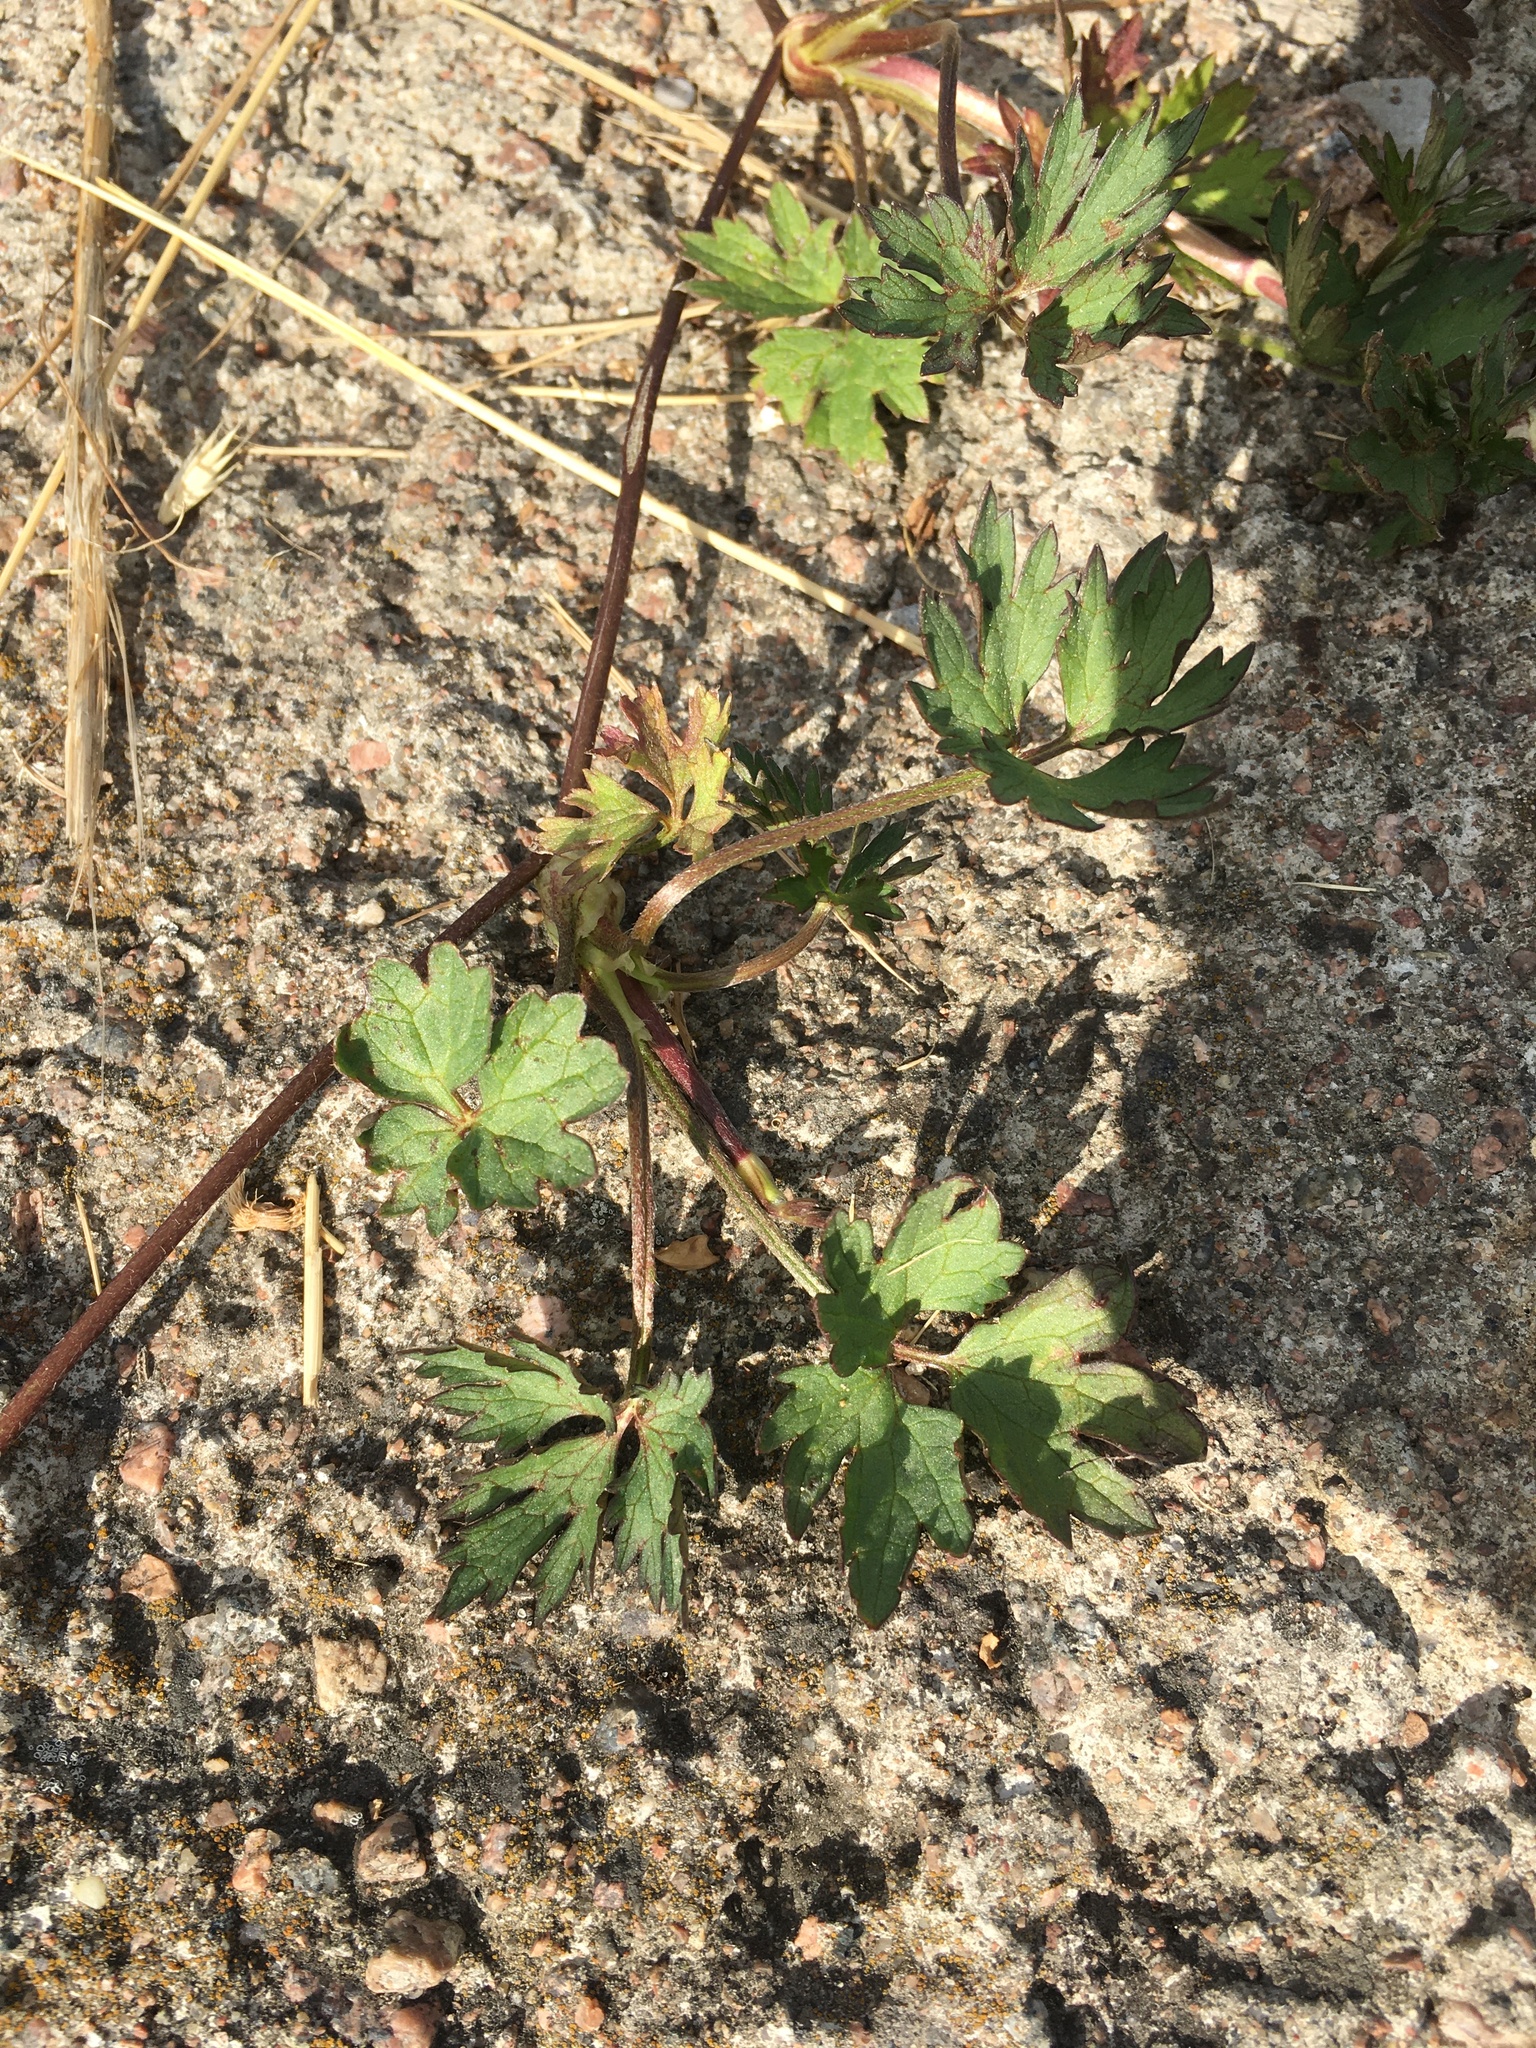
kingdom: Plantae
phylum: Tracheophyta
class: Magnoliopsida
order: Ranunculales
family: Ranunculaceae
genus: Ranunculus
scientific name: Ranunculus repens
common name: Creeping buttercup
